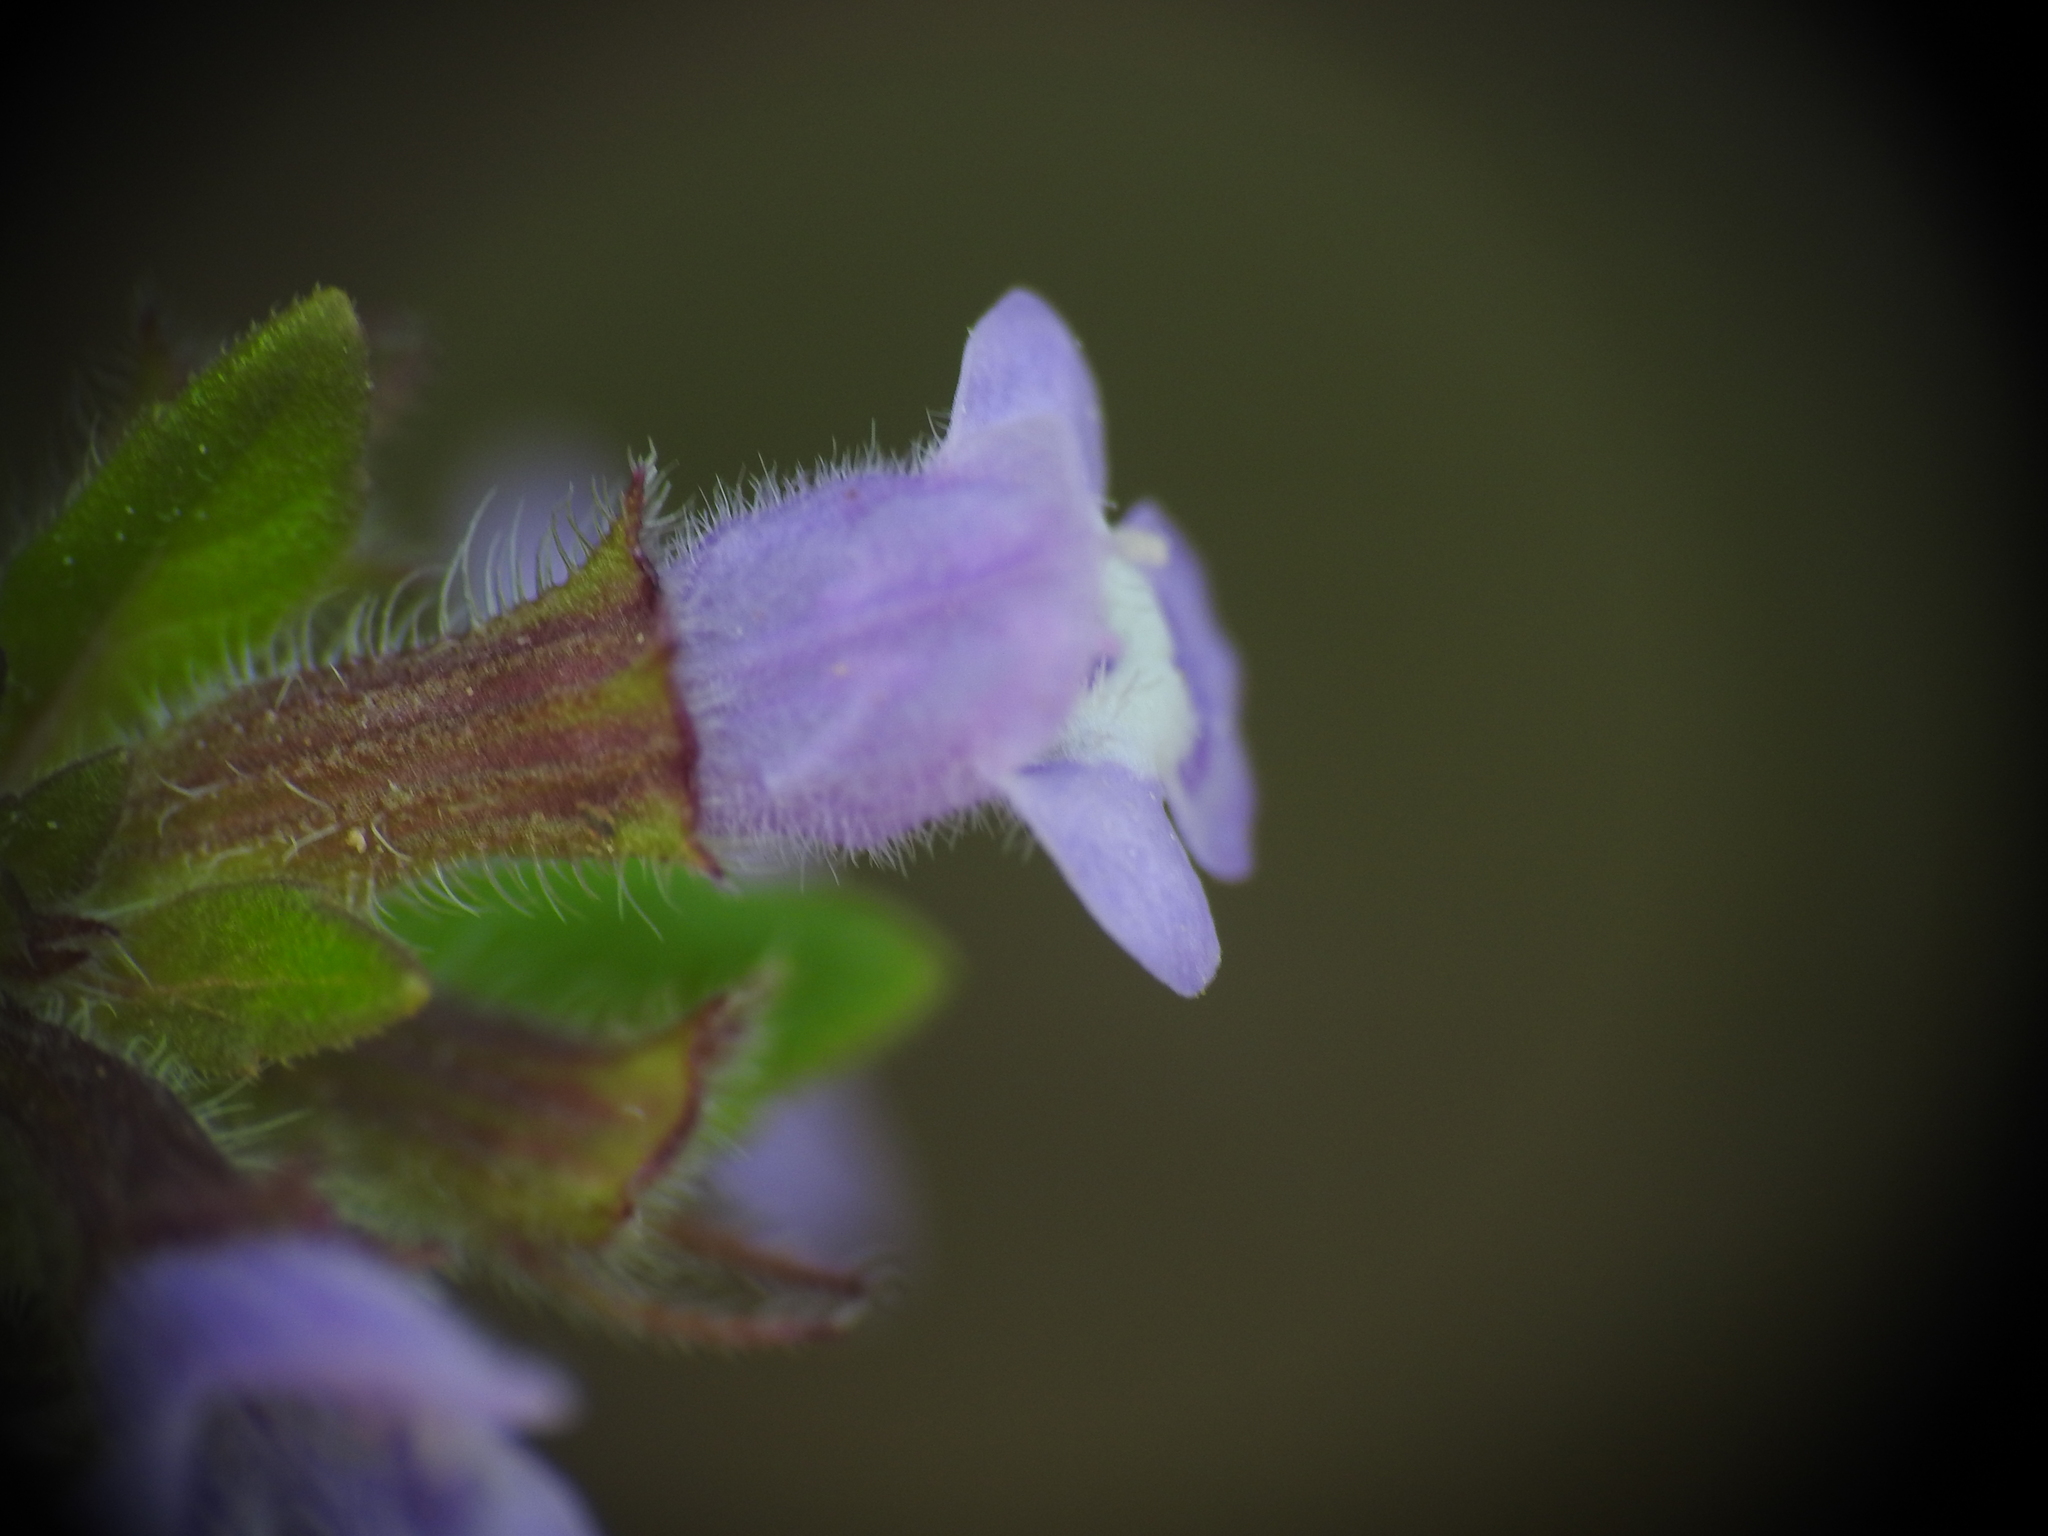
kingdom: Plantae
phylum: Tracheophyta
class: Magnoliopsida
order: Lamiales
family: Lamiaceae
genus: Clinopodium
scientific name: Clinopodium acinos
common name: Basil thyme
